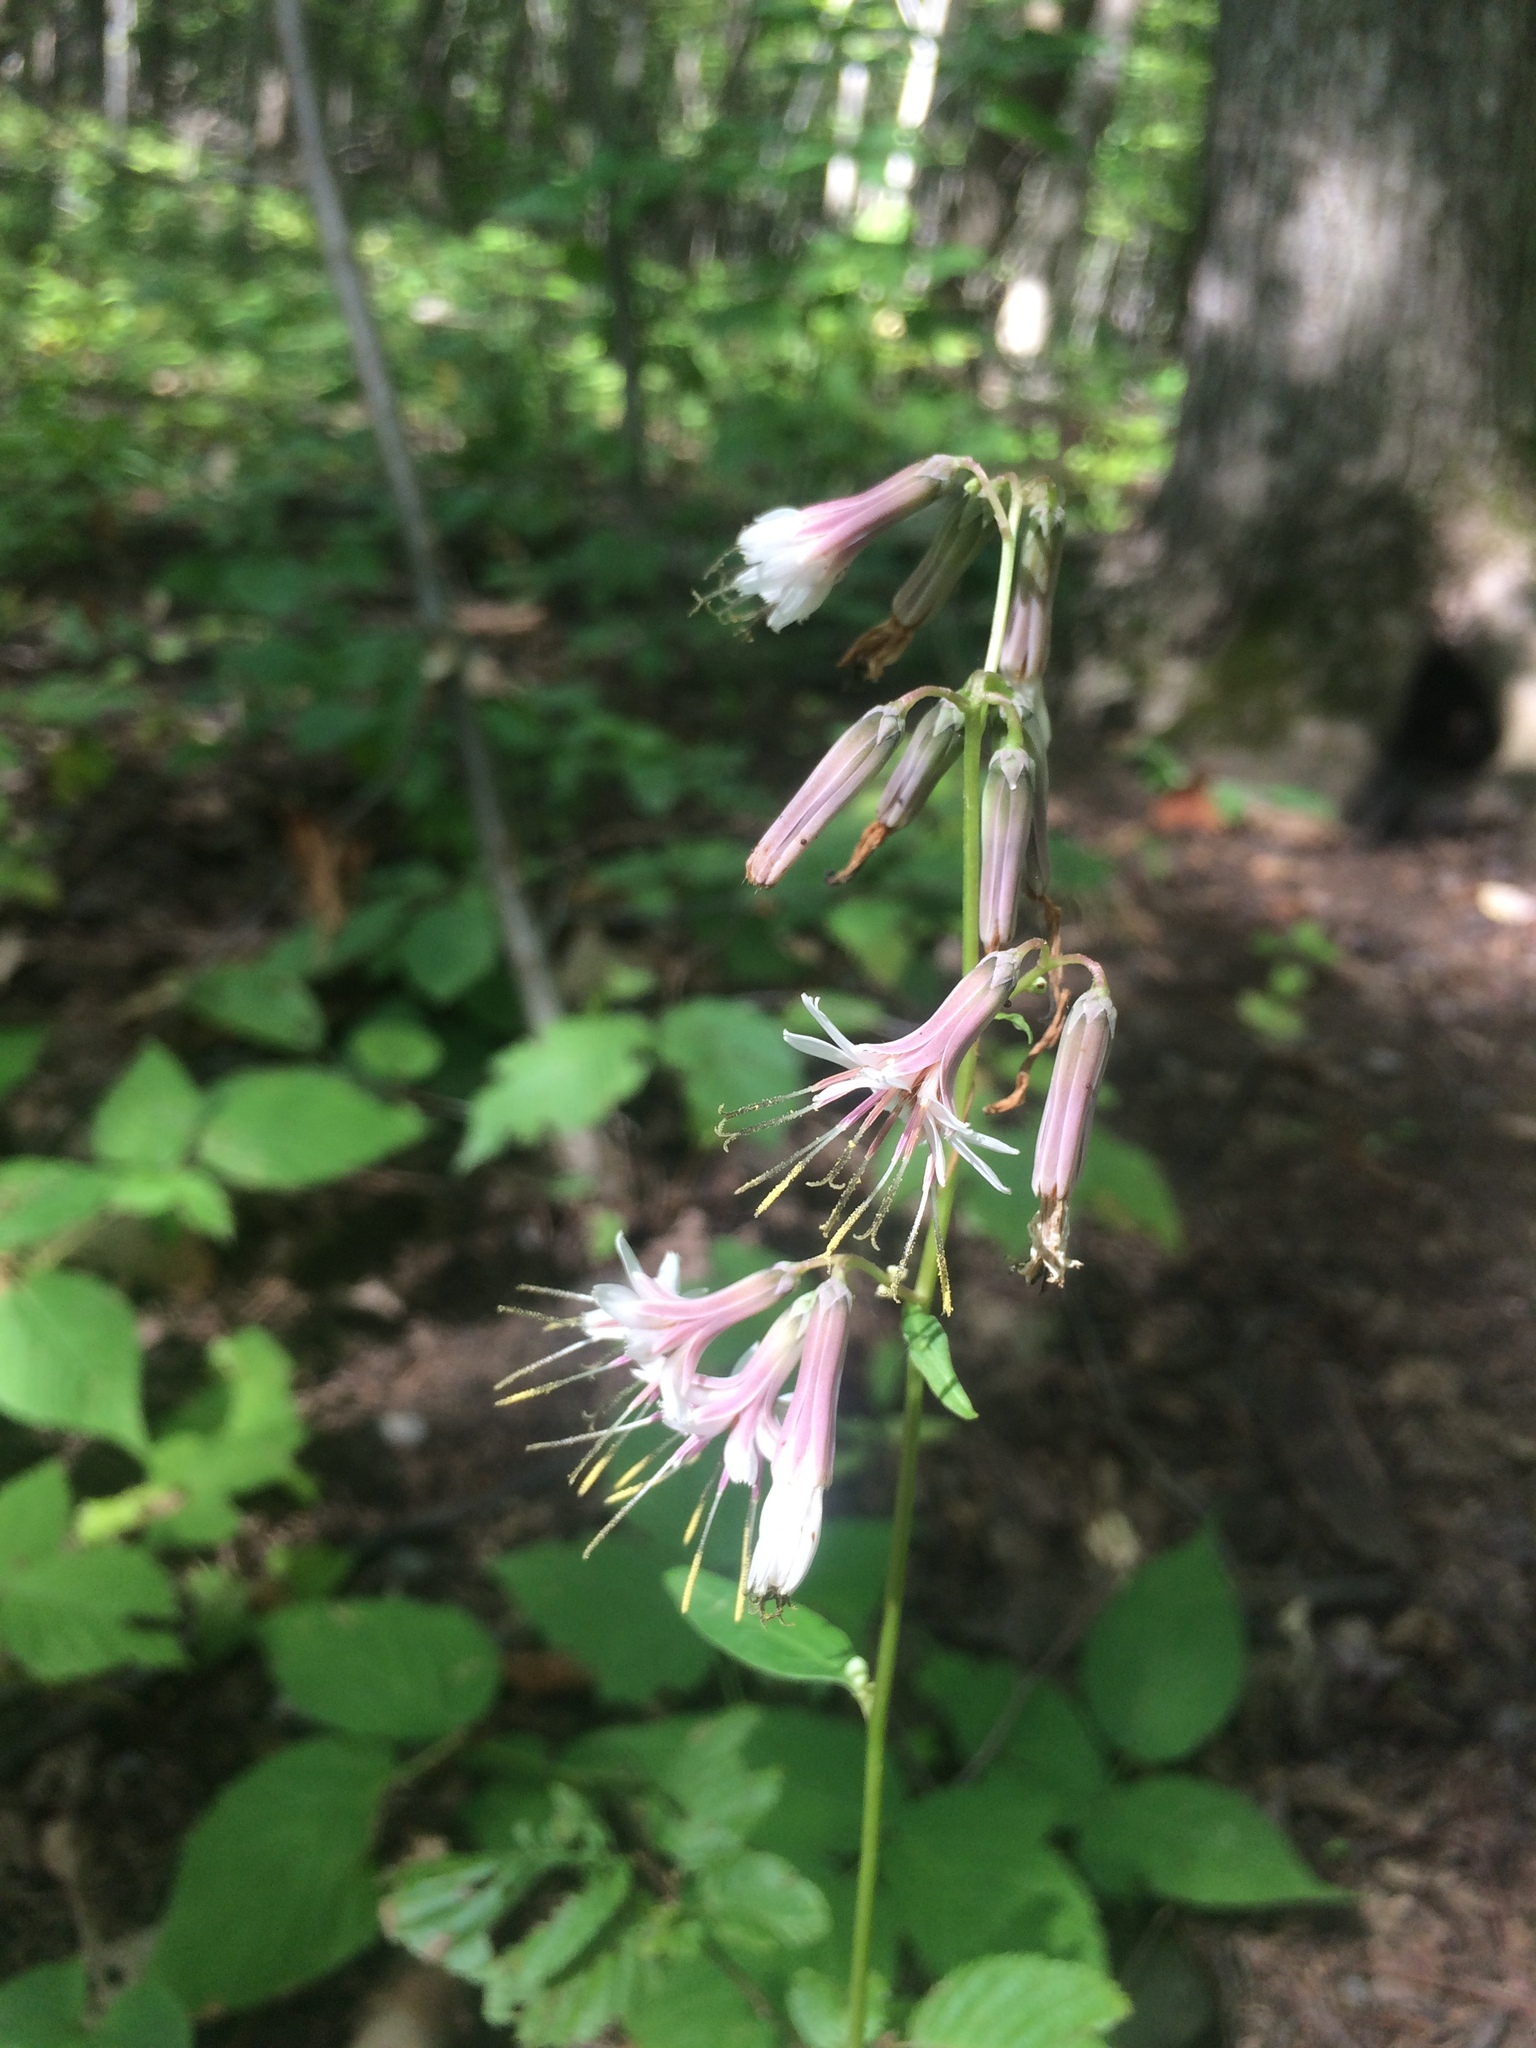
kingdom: Plantae
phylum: Tracheophyta
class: Magnoliopsida
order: Asterales
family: Asteraceae
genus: Nabalus
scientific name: Nabalus albus
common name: White rattlesnakeroot
